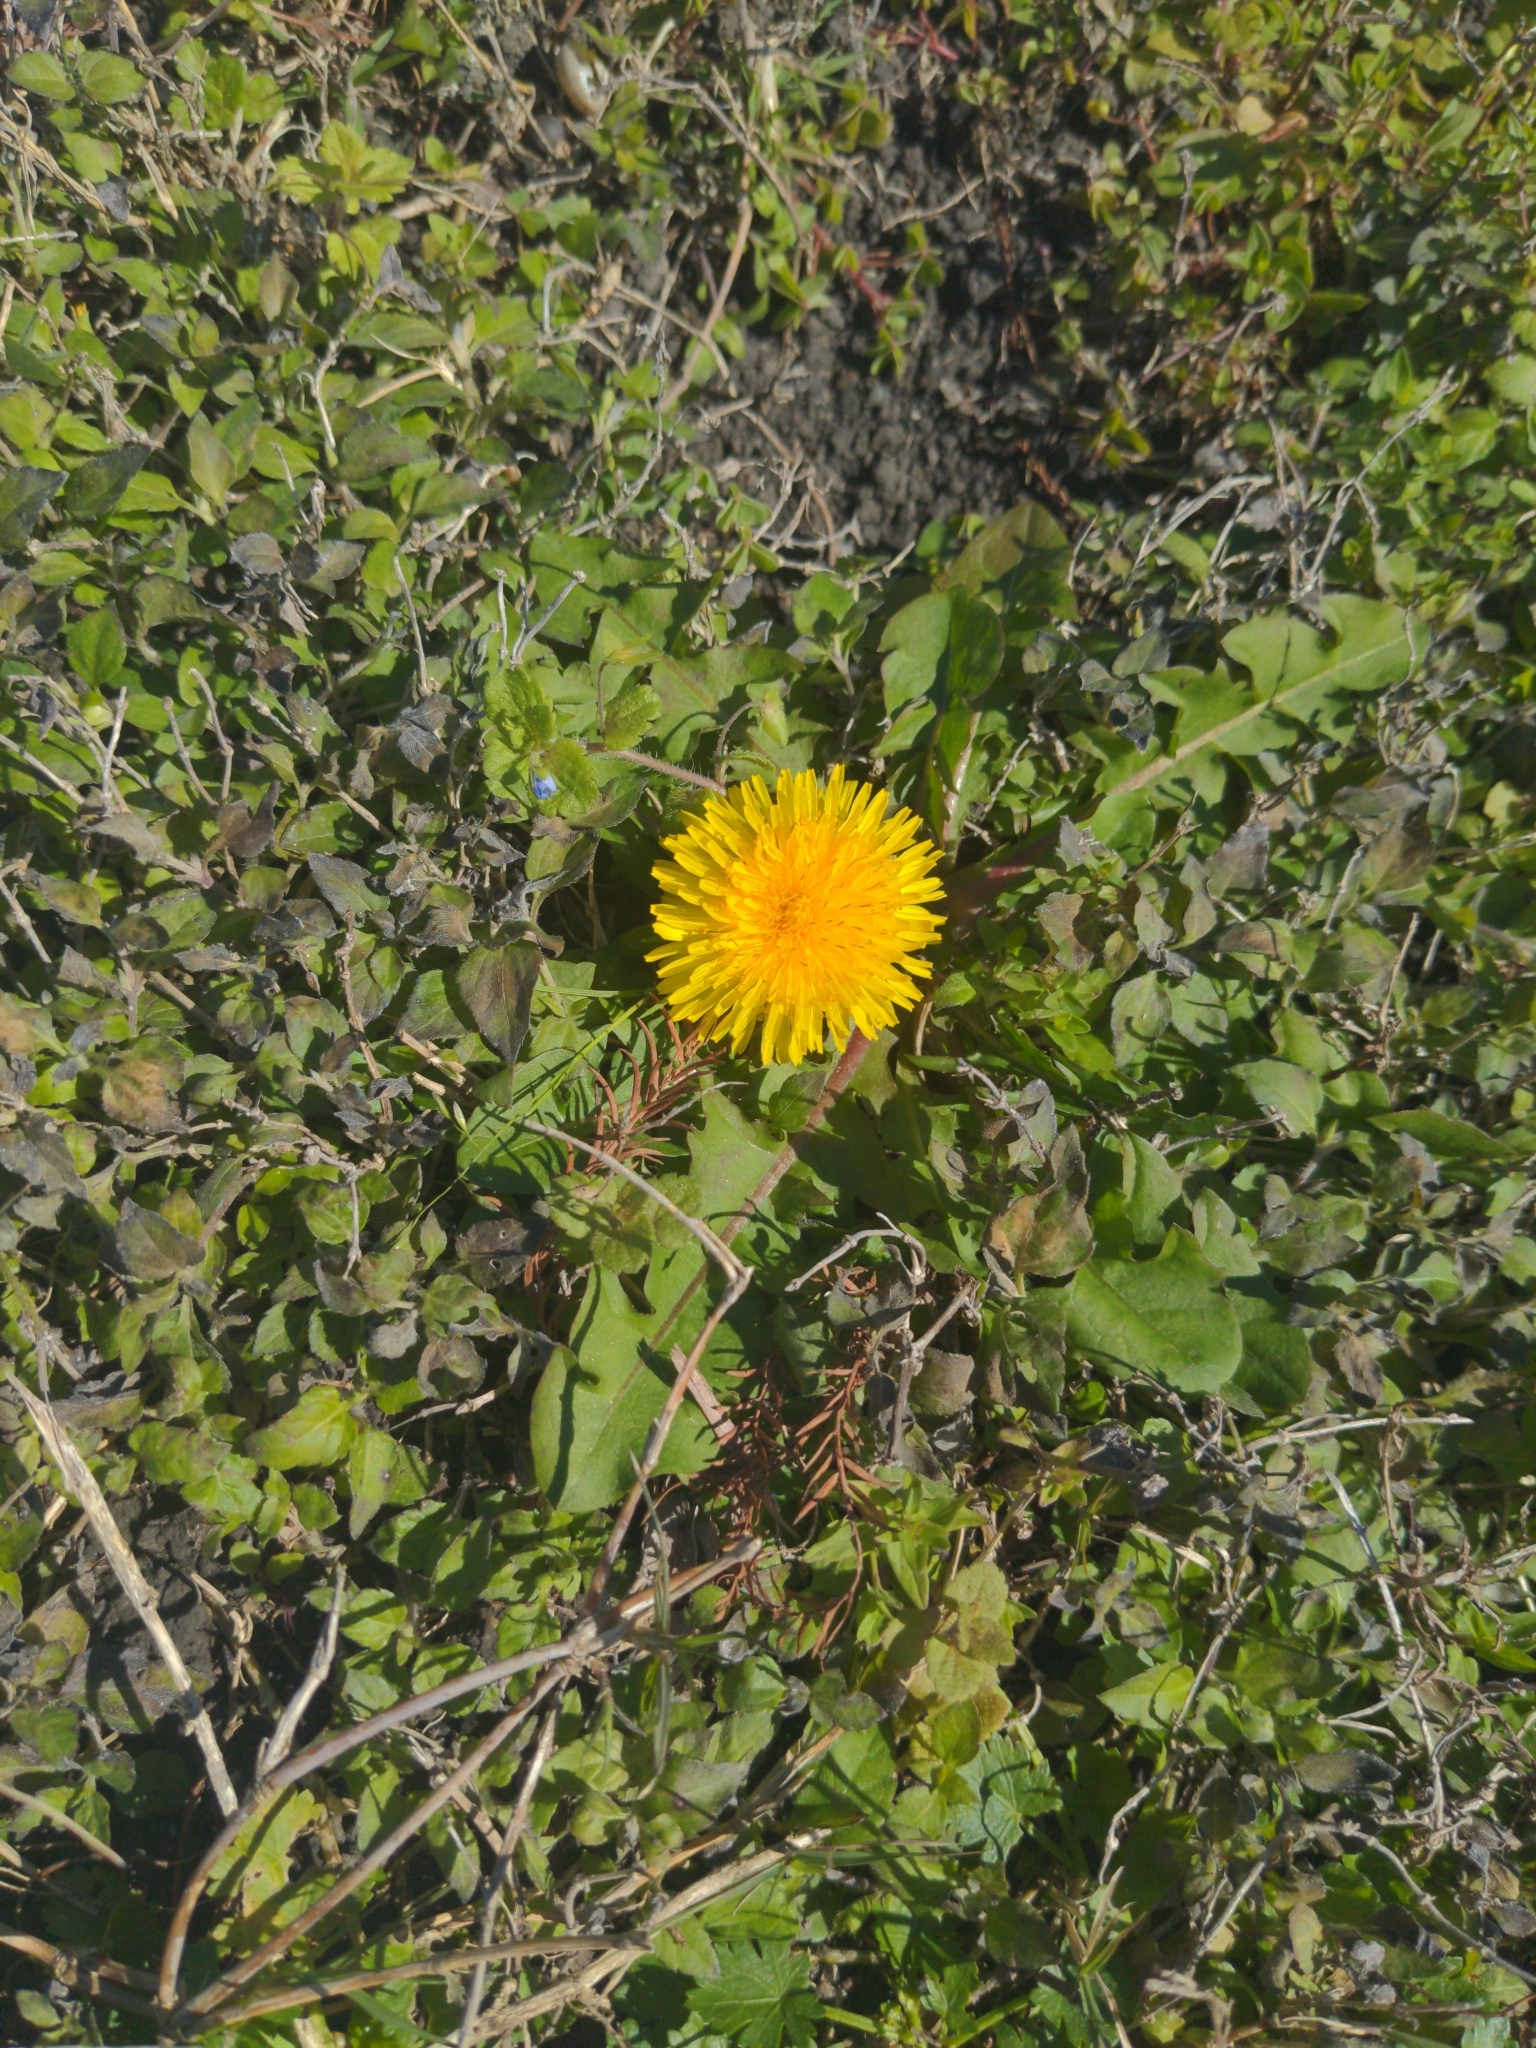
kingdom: Plantae
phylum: Tracheophyta
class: Magnoliopsida
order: Asterales
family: Asteraceae
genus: Taraxacum
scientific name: Taraxacum
